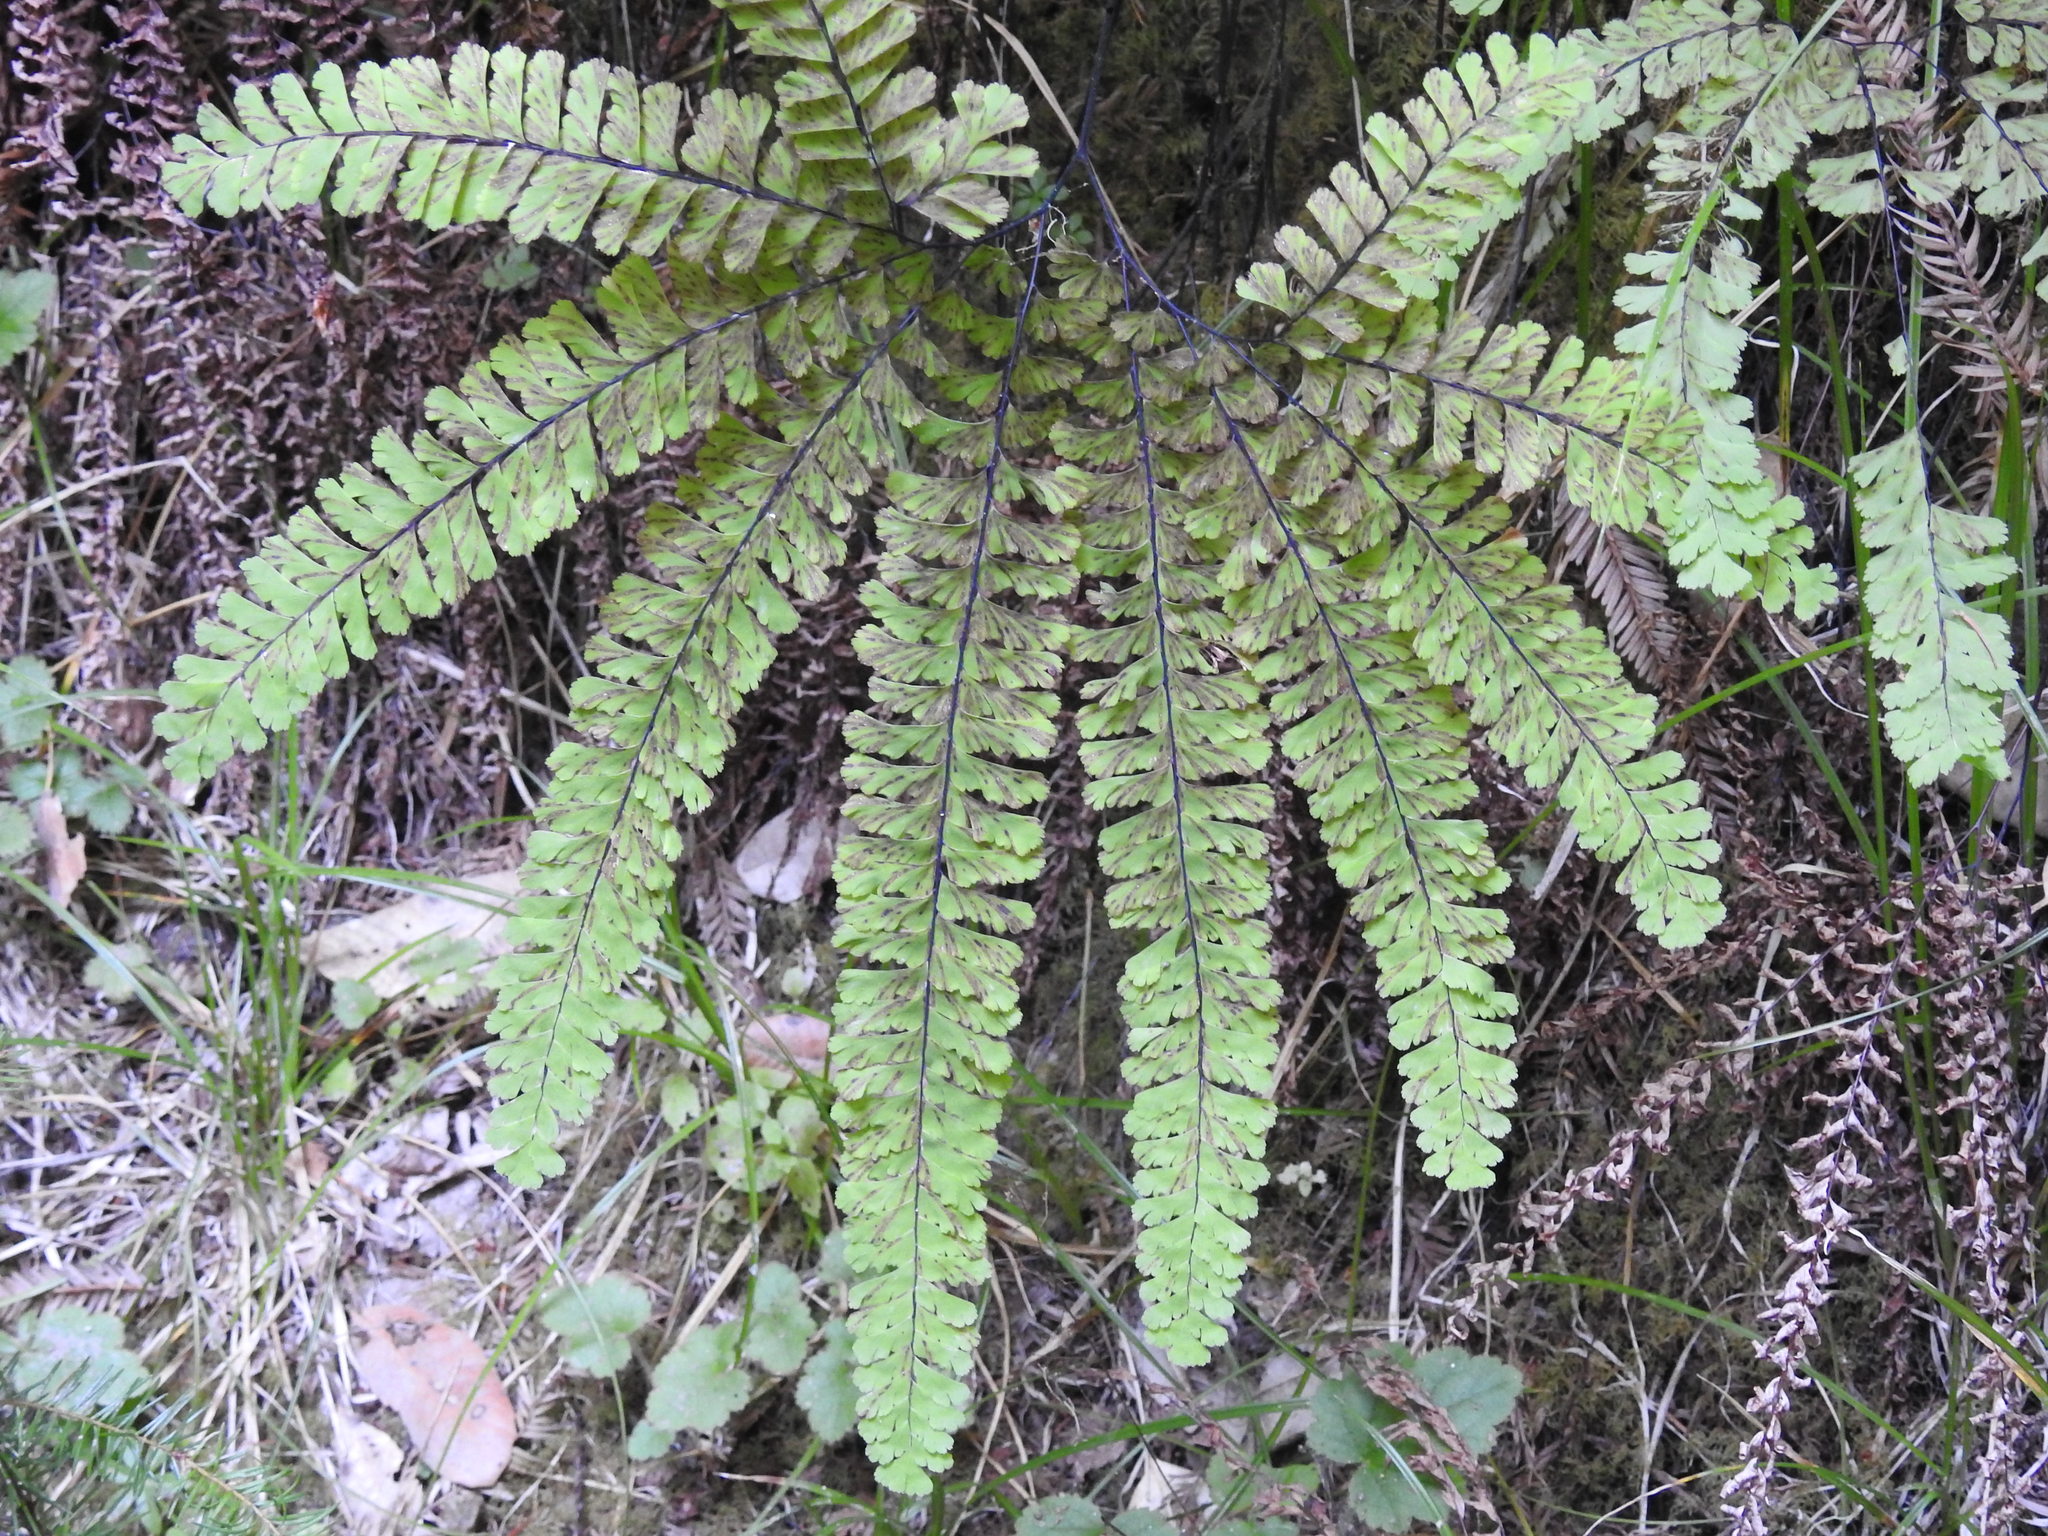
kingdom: Plantae
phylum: Tracheophyta
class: Polypodiopsida
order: Polypodiales
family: Pteridaceae
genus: Adiantum
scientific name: Adiantum aleuticum
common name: Aleutian maidenhair fern
